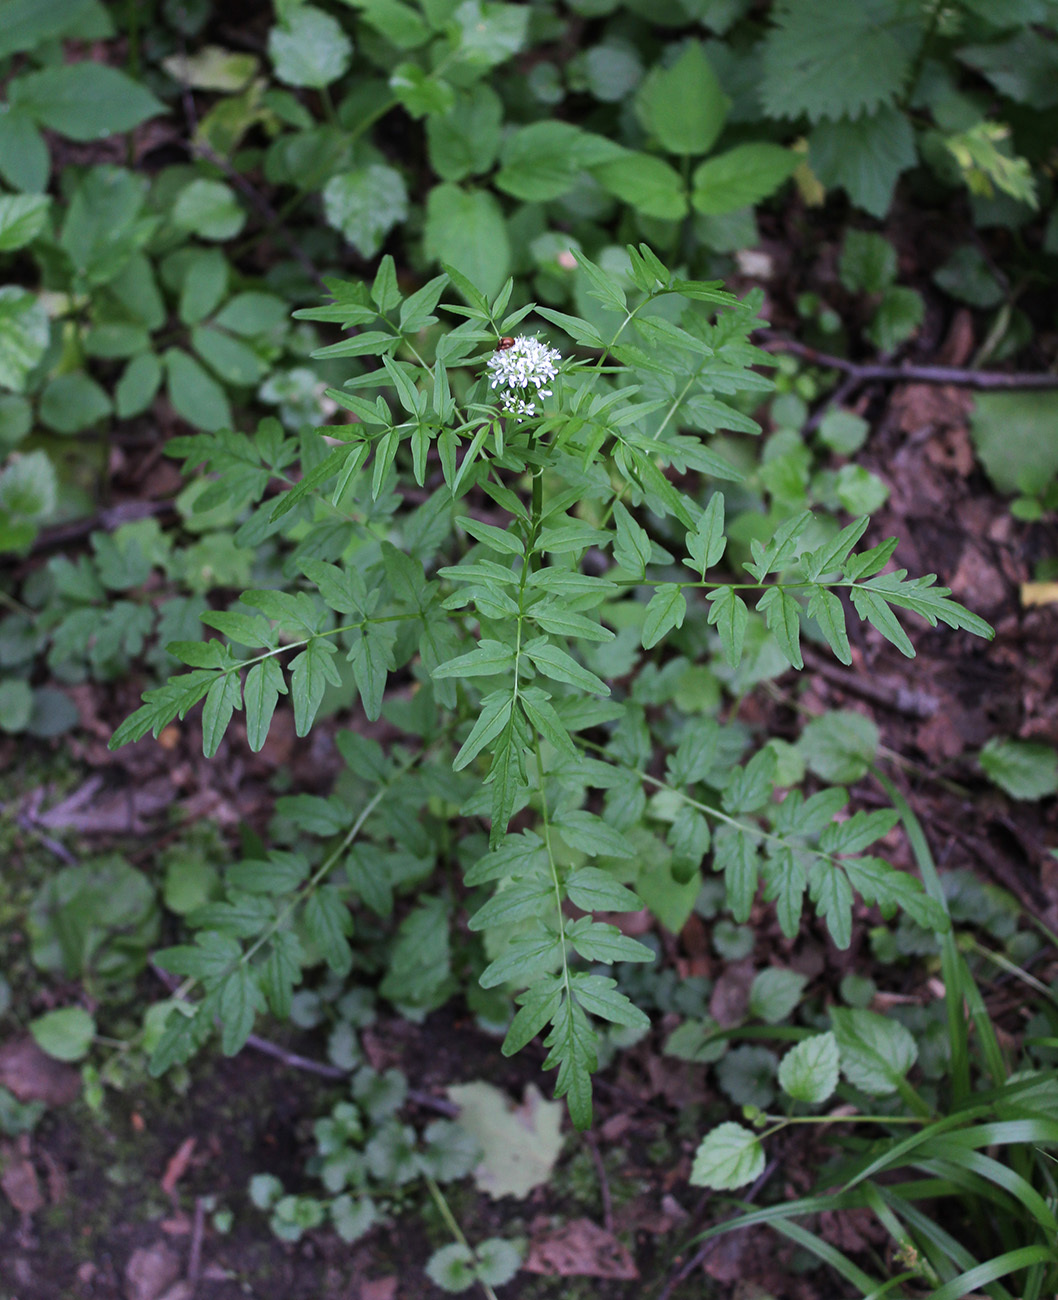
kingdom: Plantae
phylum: Tracheophyta
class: Magnoliopsida
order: Brassicales
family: Brassicaceae
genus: Cardamine
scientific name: Cardamine impatiens
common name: Narrow-leaved bitter-cress
